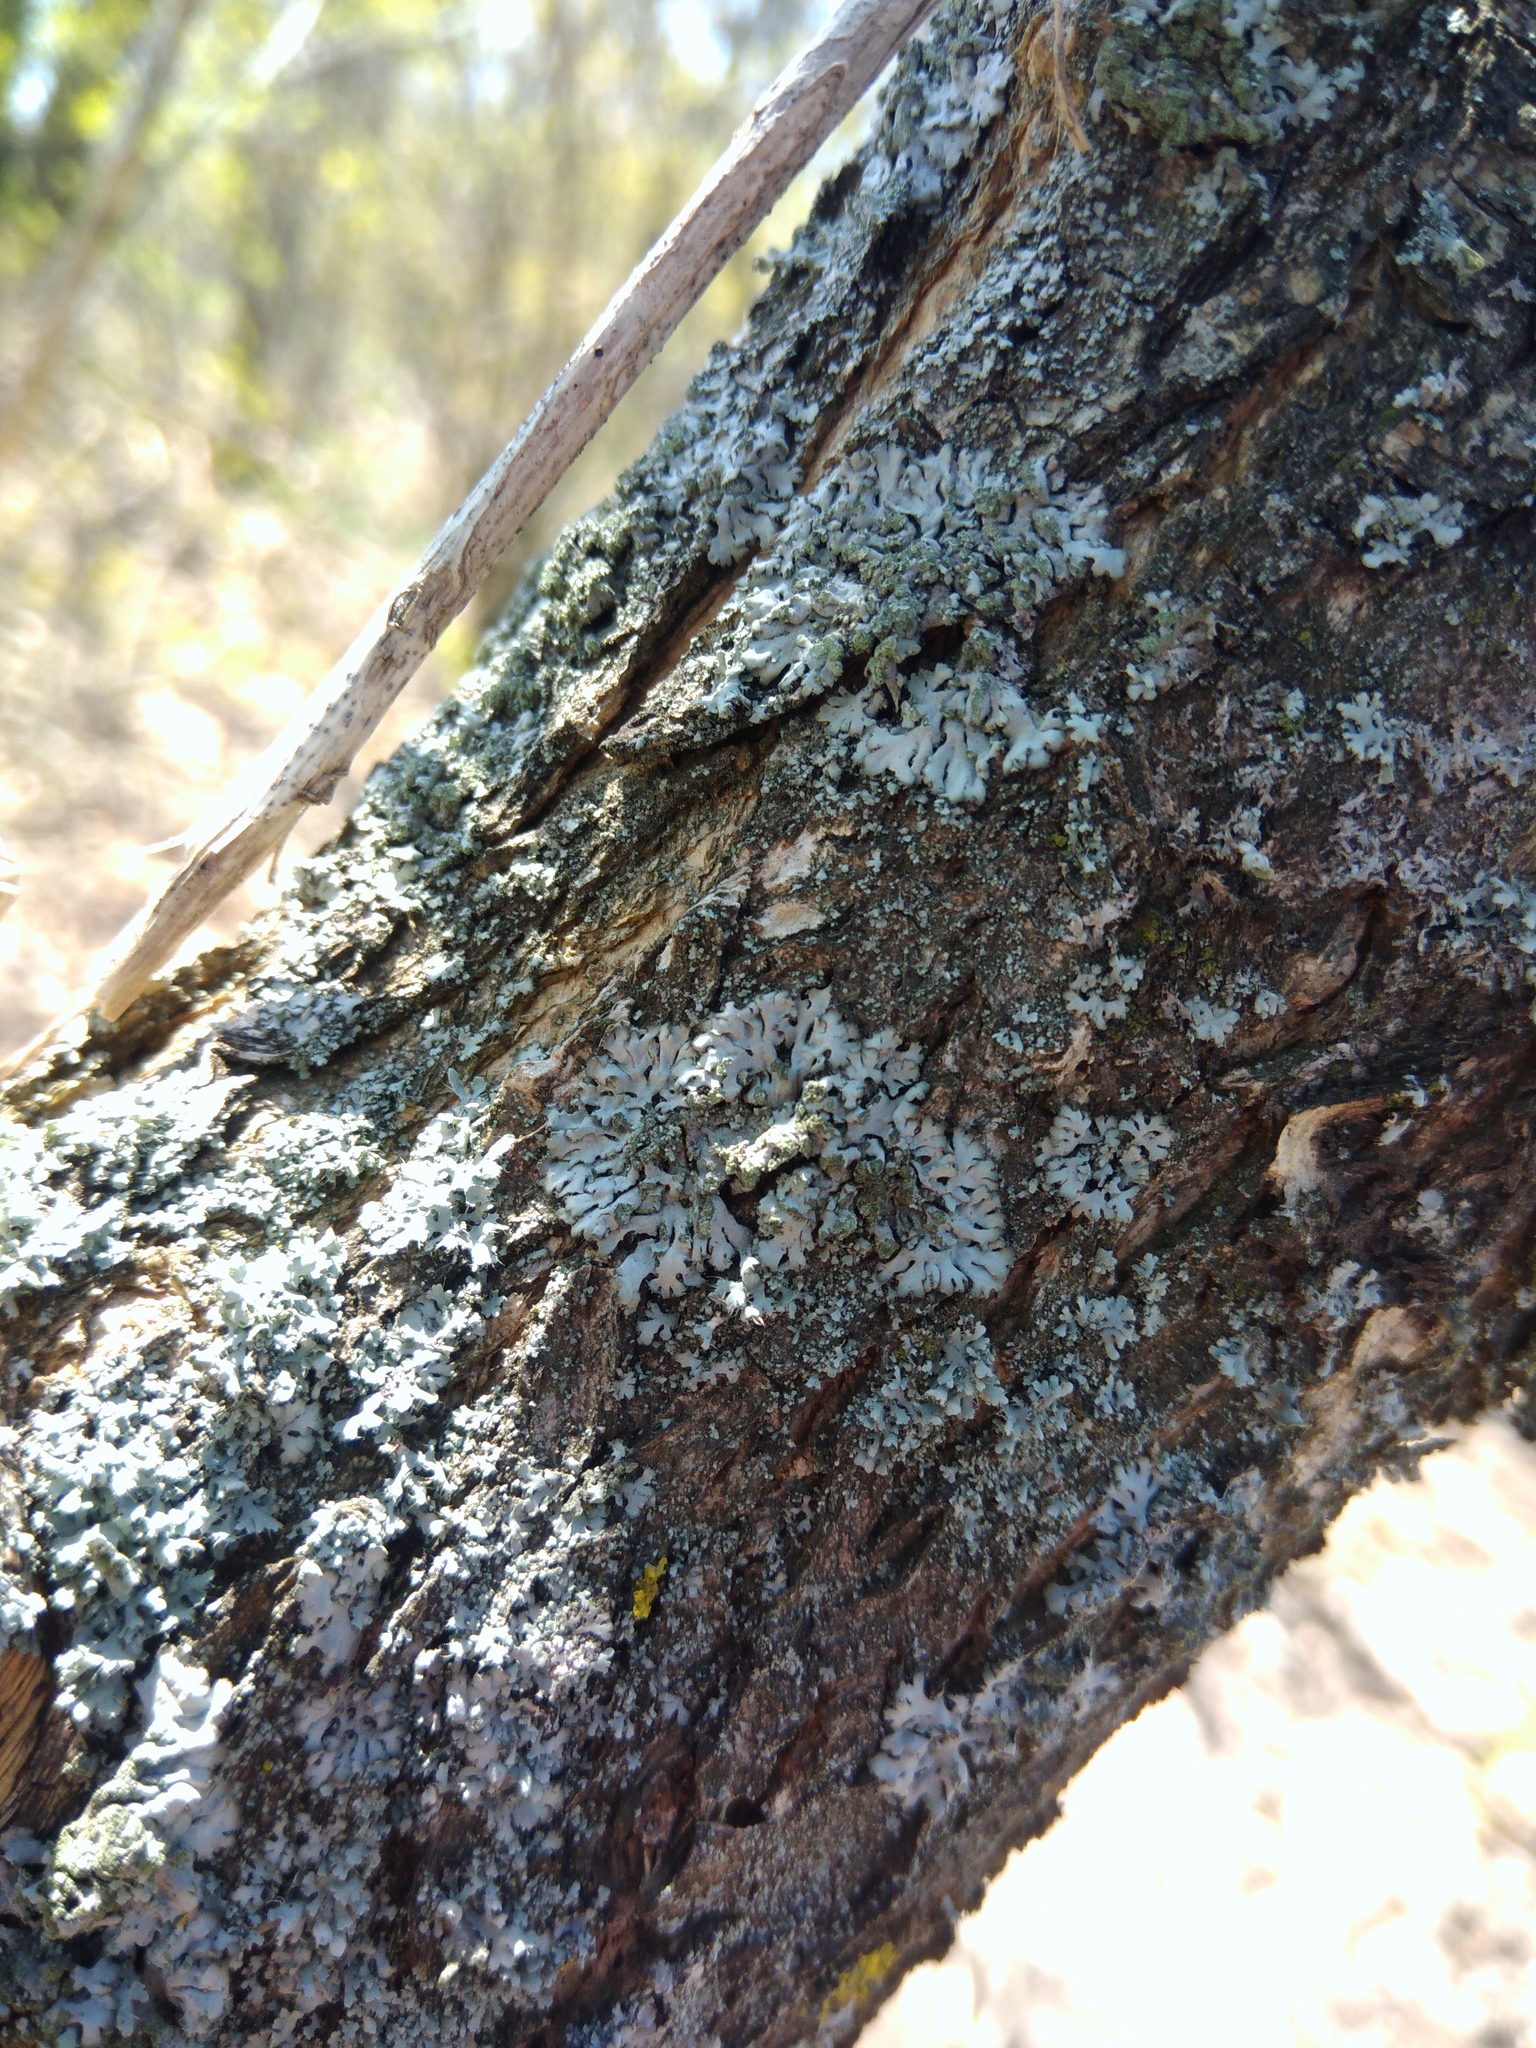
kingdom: Fungi
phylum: Ascomycota
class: Lecanoromycetes
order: Caliciales
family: Physciaceae
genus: Phaeophyscia
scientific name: Phaeophyscia orbicularis
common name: Mealy shadow lichen
